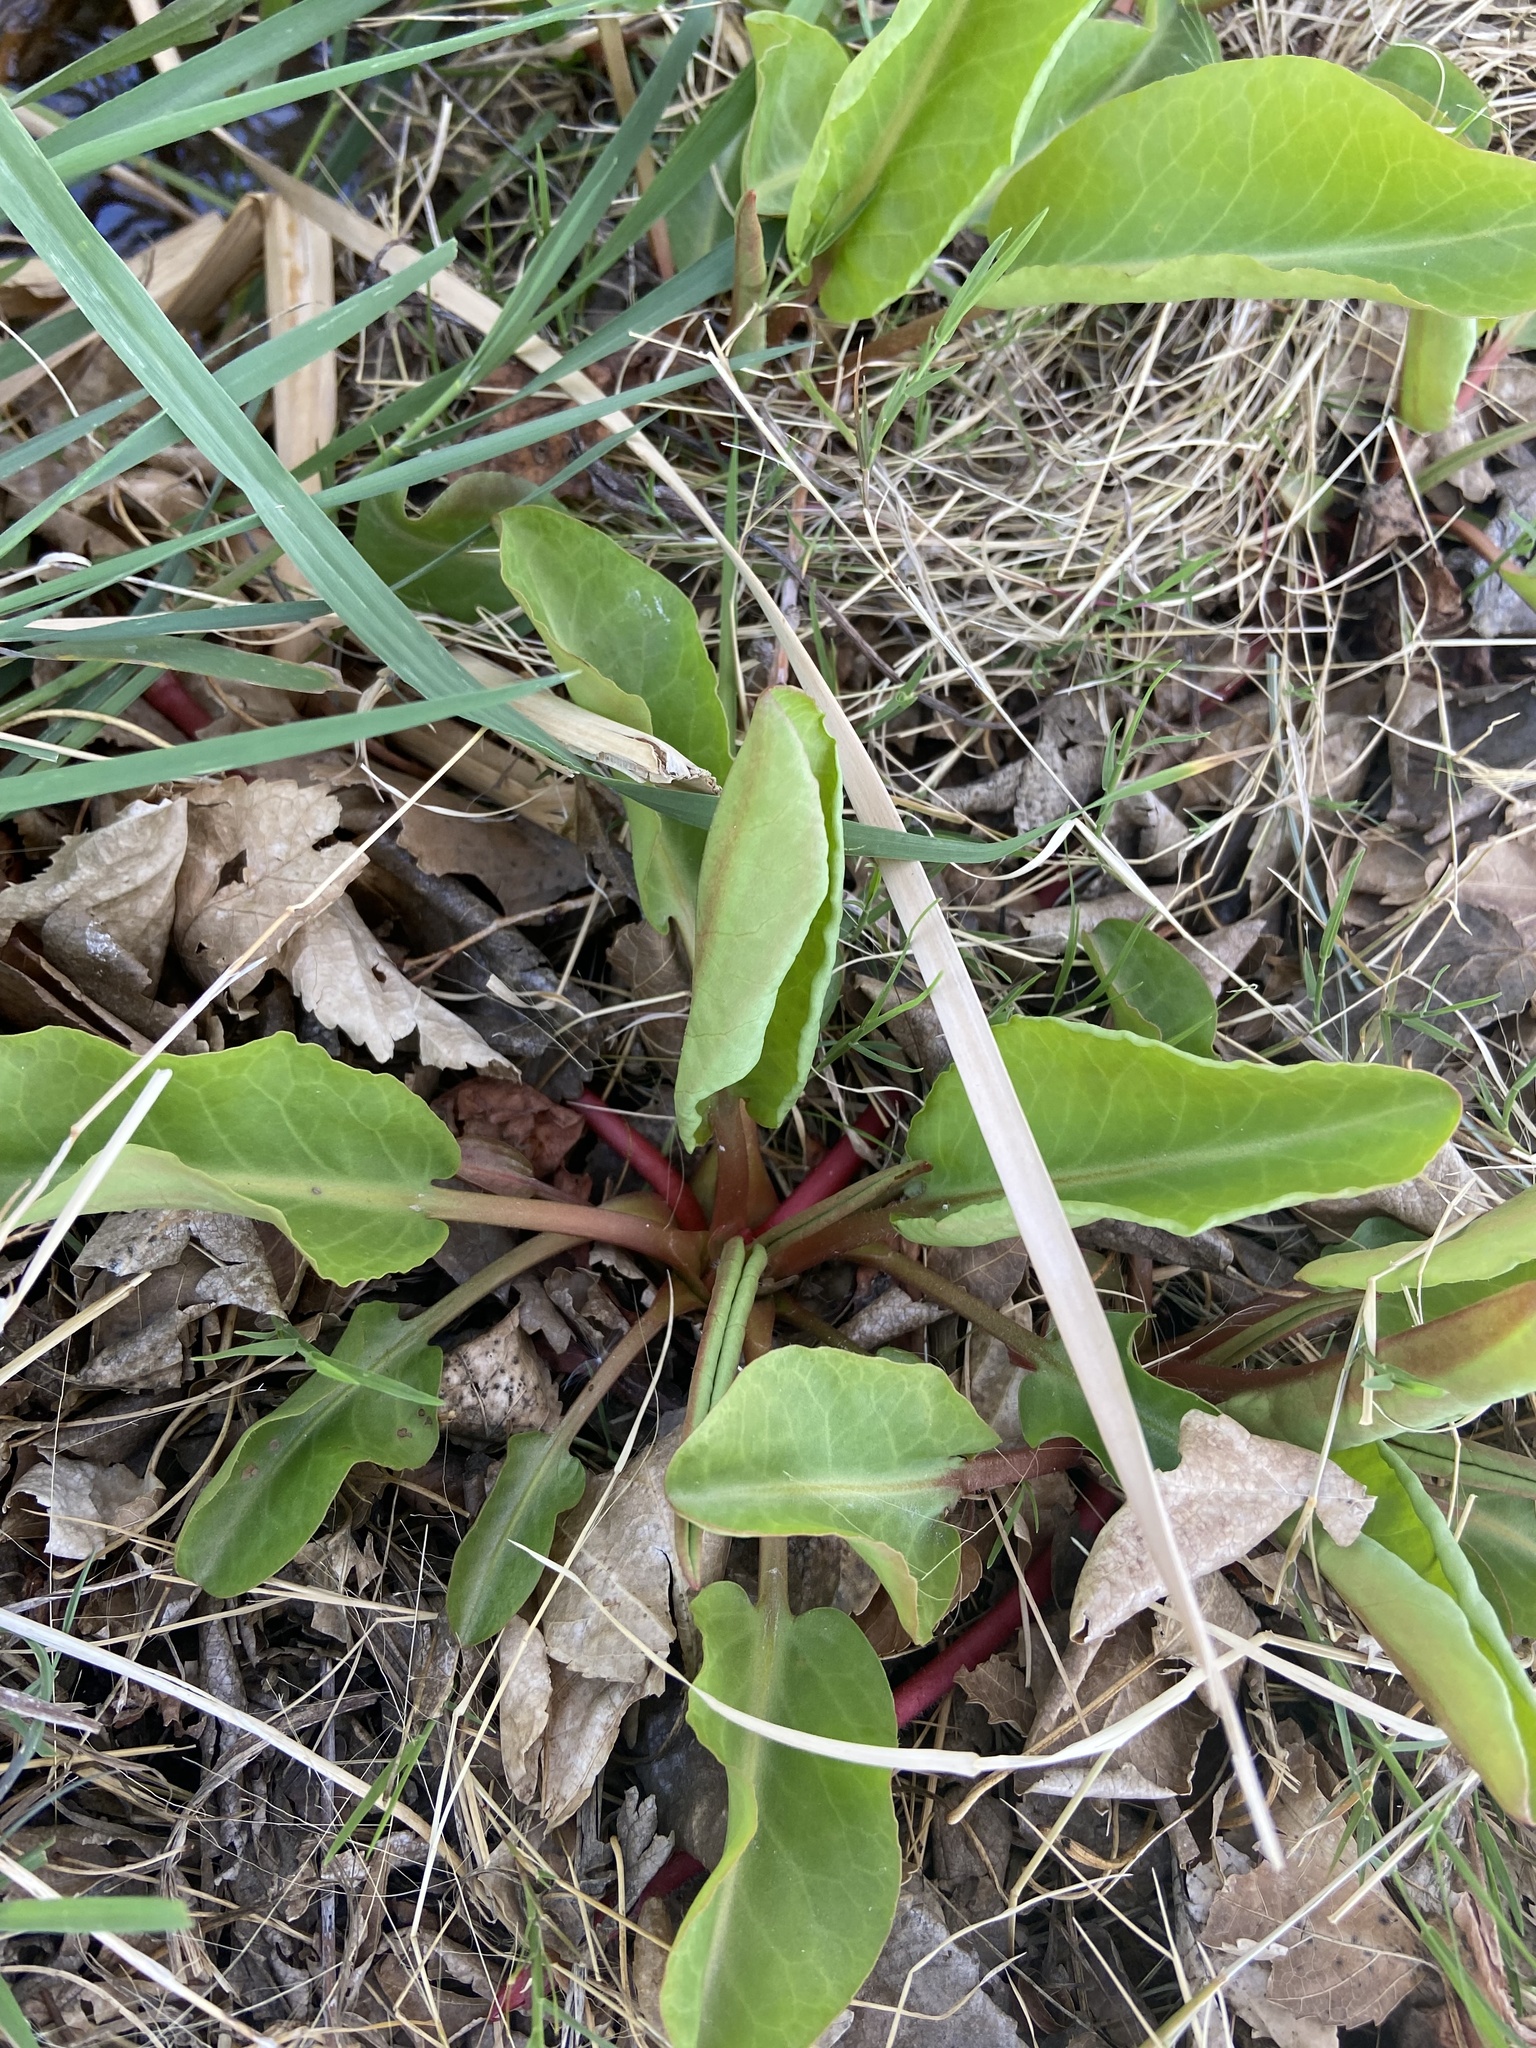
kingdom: Plantae
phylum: Tracheophyta
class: Magnoliopsida
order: Piperales
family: Saururaceae
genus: Anemopsis
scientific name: Anemopsis californica
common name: Apache-beads
